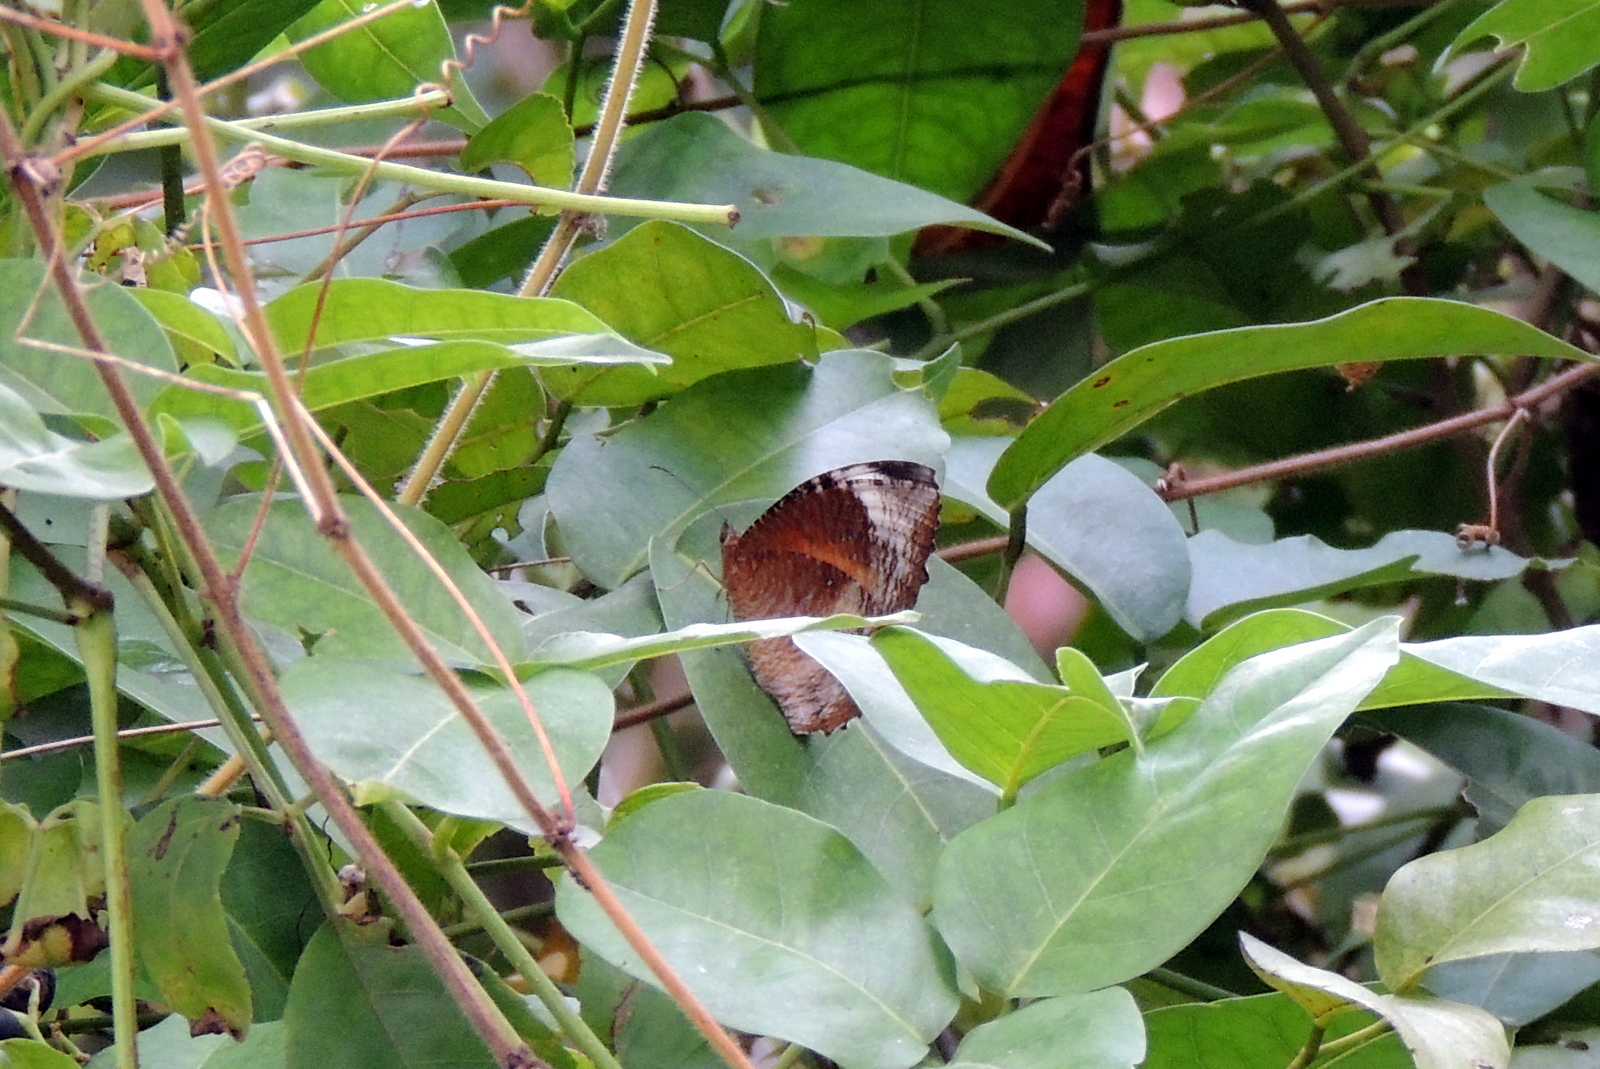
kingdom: Animalia
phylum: Arthropoda
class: Insecta
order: Lepidoptera
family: Nymphalidae
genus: Elymnias
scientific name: Elymnias hypermnestra
